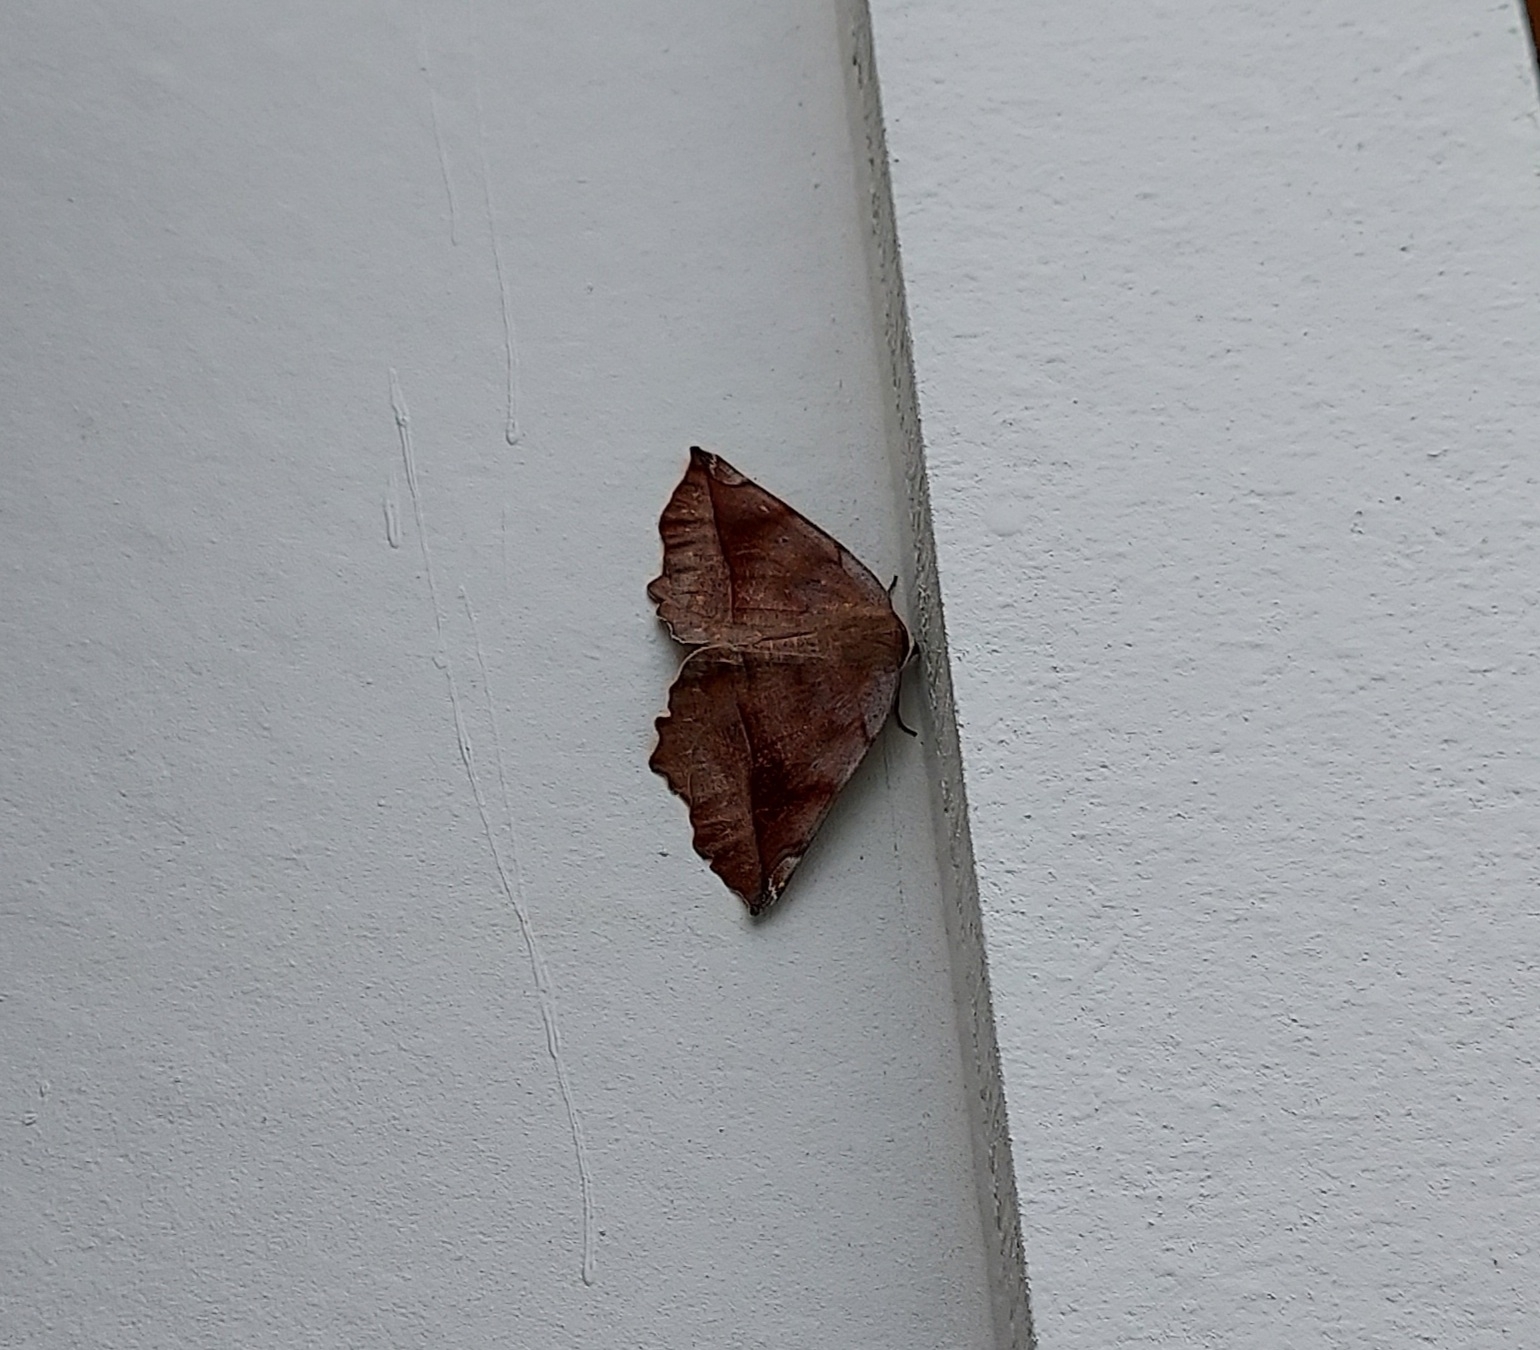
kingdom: Animalia
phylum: Arthropoda
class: Insecta
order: Lepidoptera
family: Geometridae
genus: Eutrapela
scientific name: Eutrapela clemataria
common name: Curved-toothed geometer
